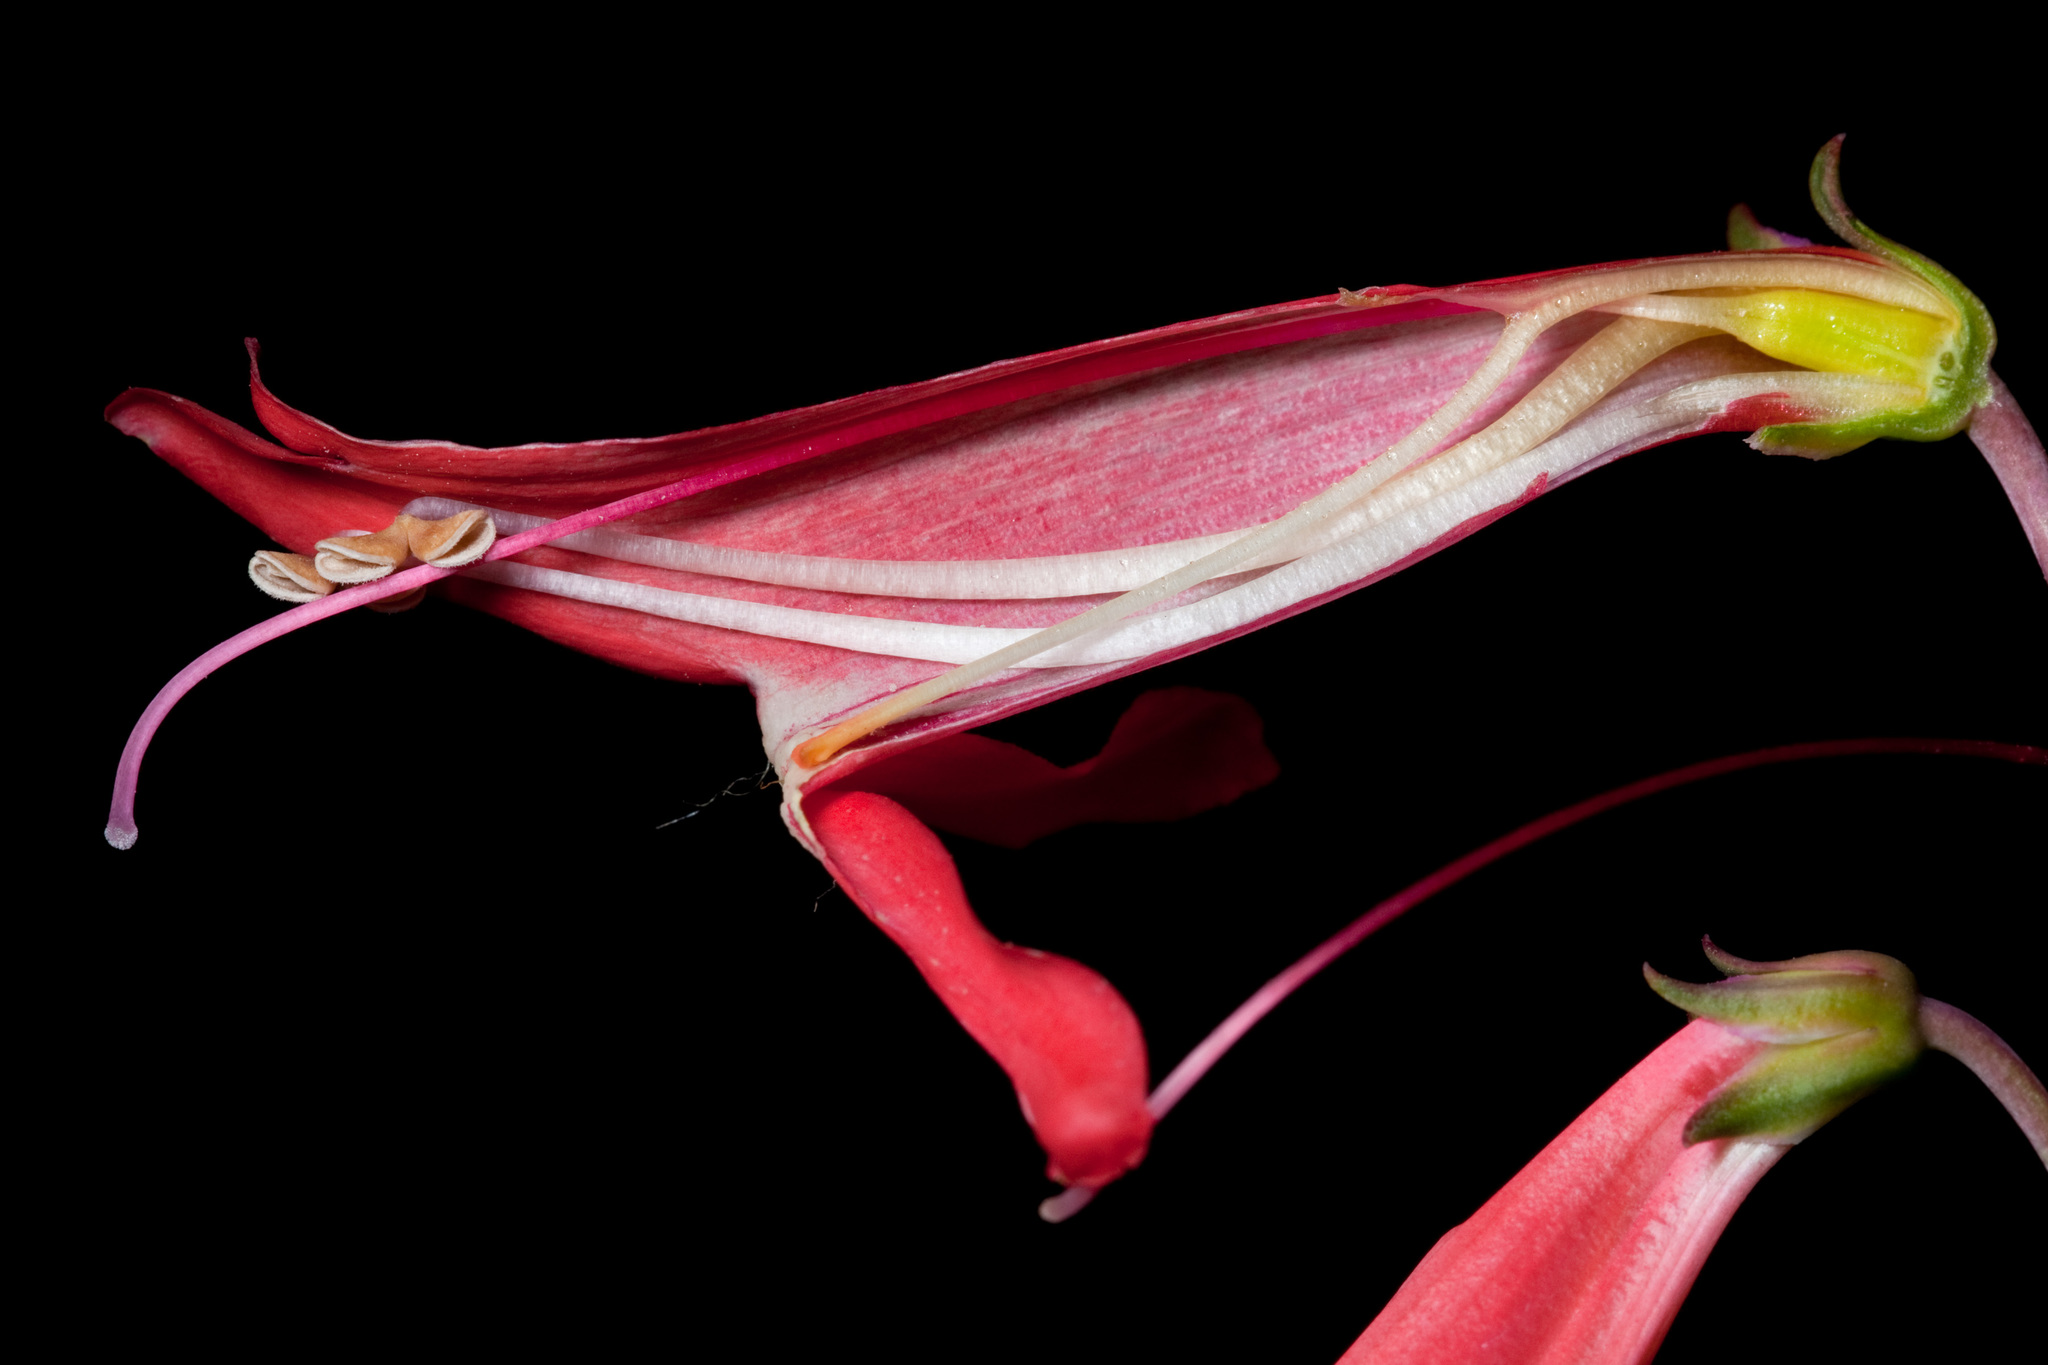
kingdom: Plantae
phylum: Tracheophyta
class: Magnoliopsida
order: Lamiales
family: Plantaginaceae
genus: Penstemon
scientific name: Penstemon barbatus
